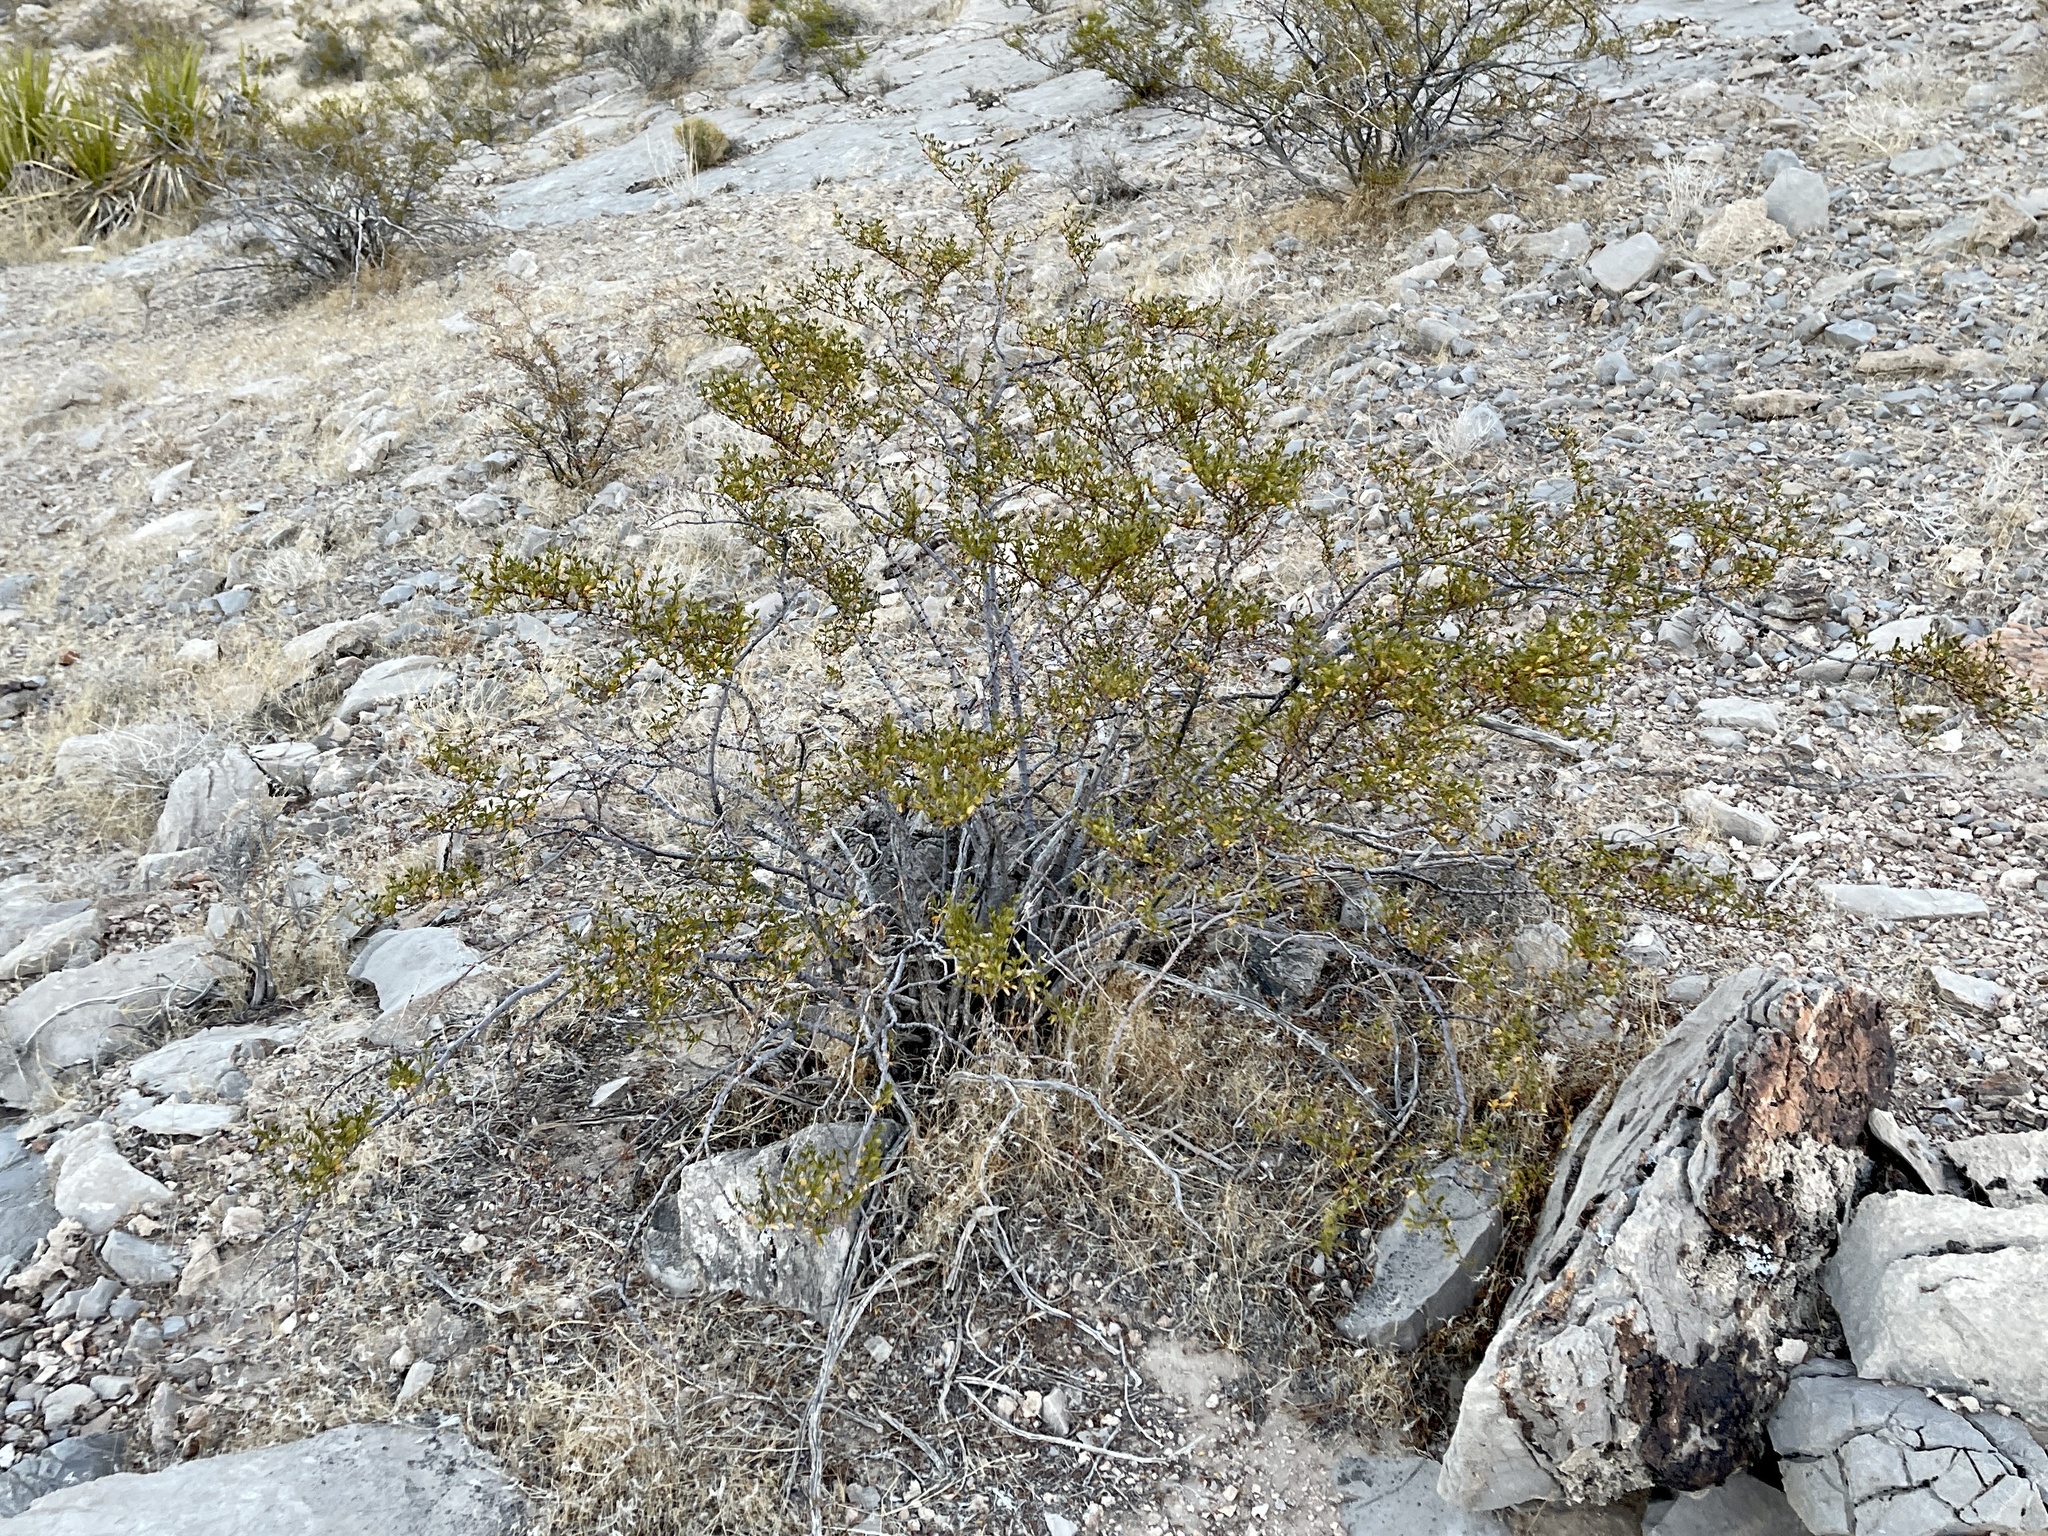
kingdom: Plantae
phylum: Tracheophyta
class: Magnoliopsida
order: Zygophyllales
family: Zygophyllaceae
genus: Larrea
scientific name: Larrea tridentata
